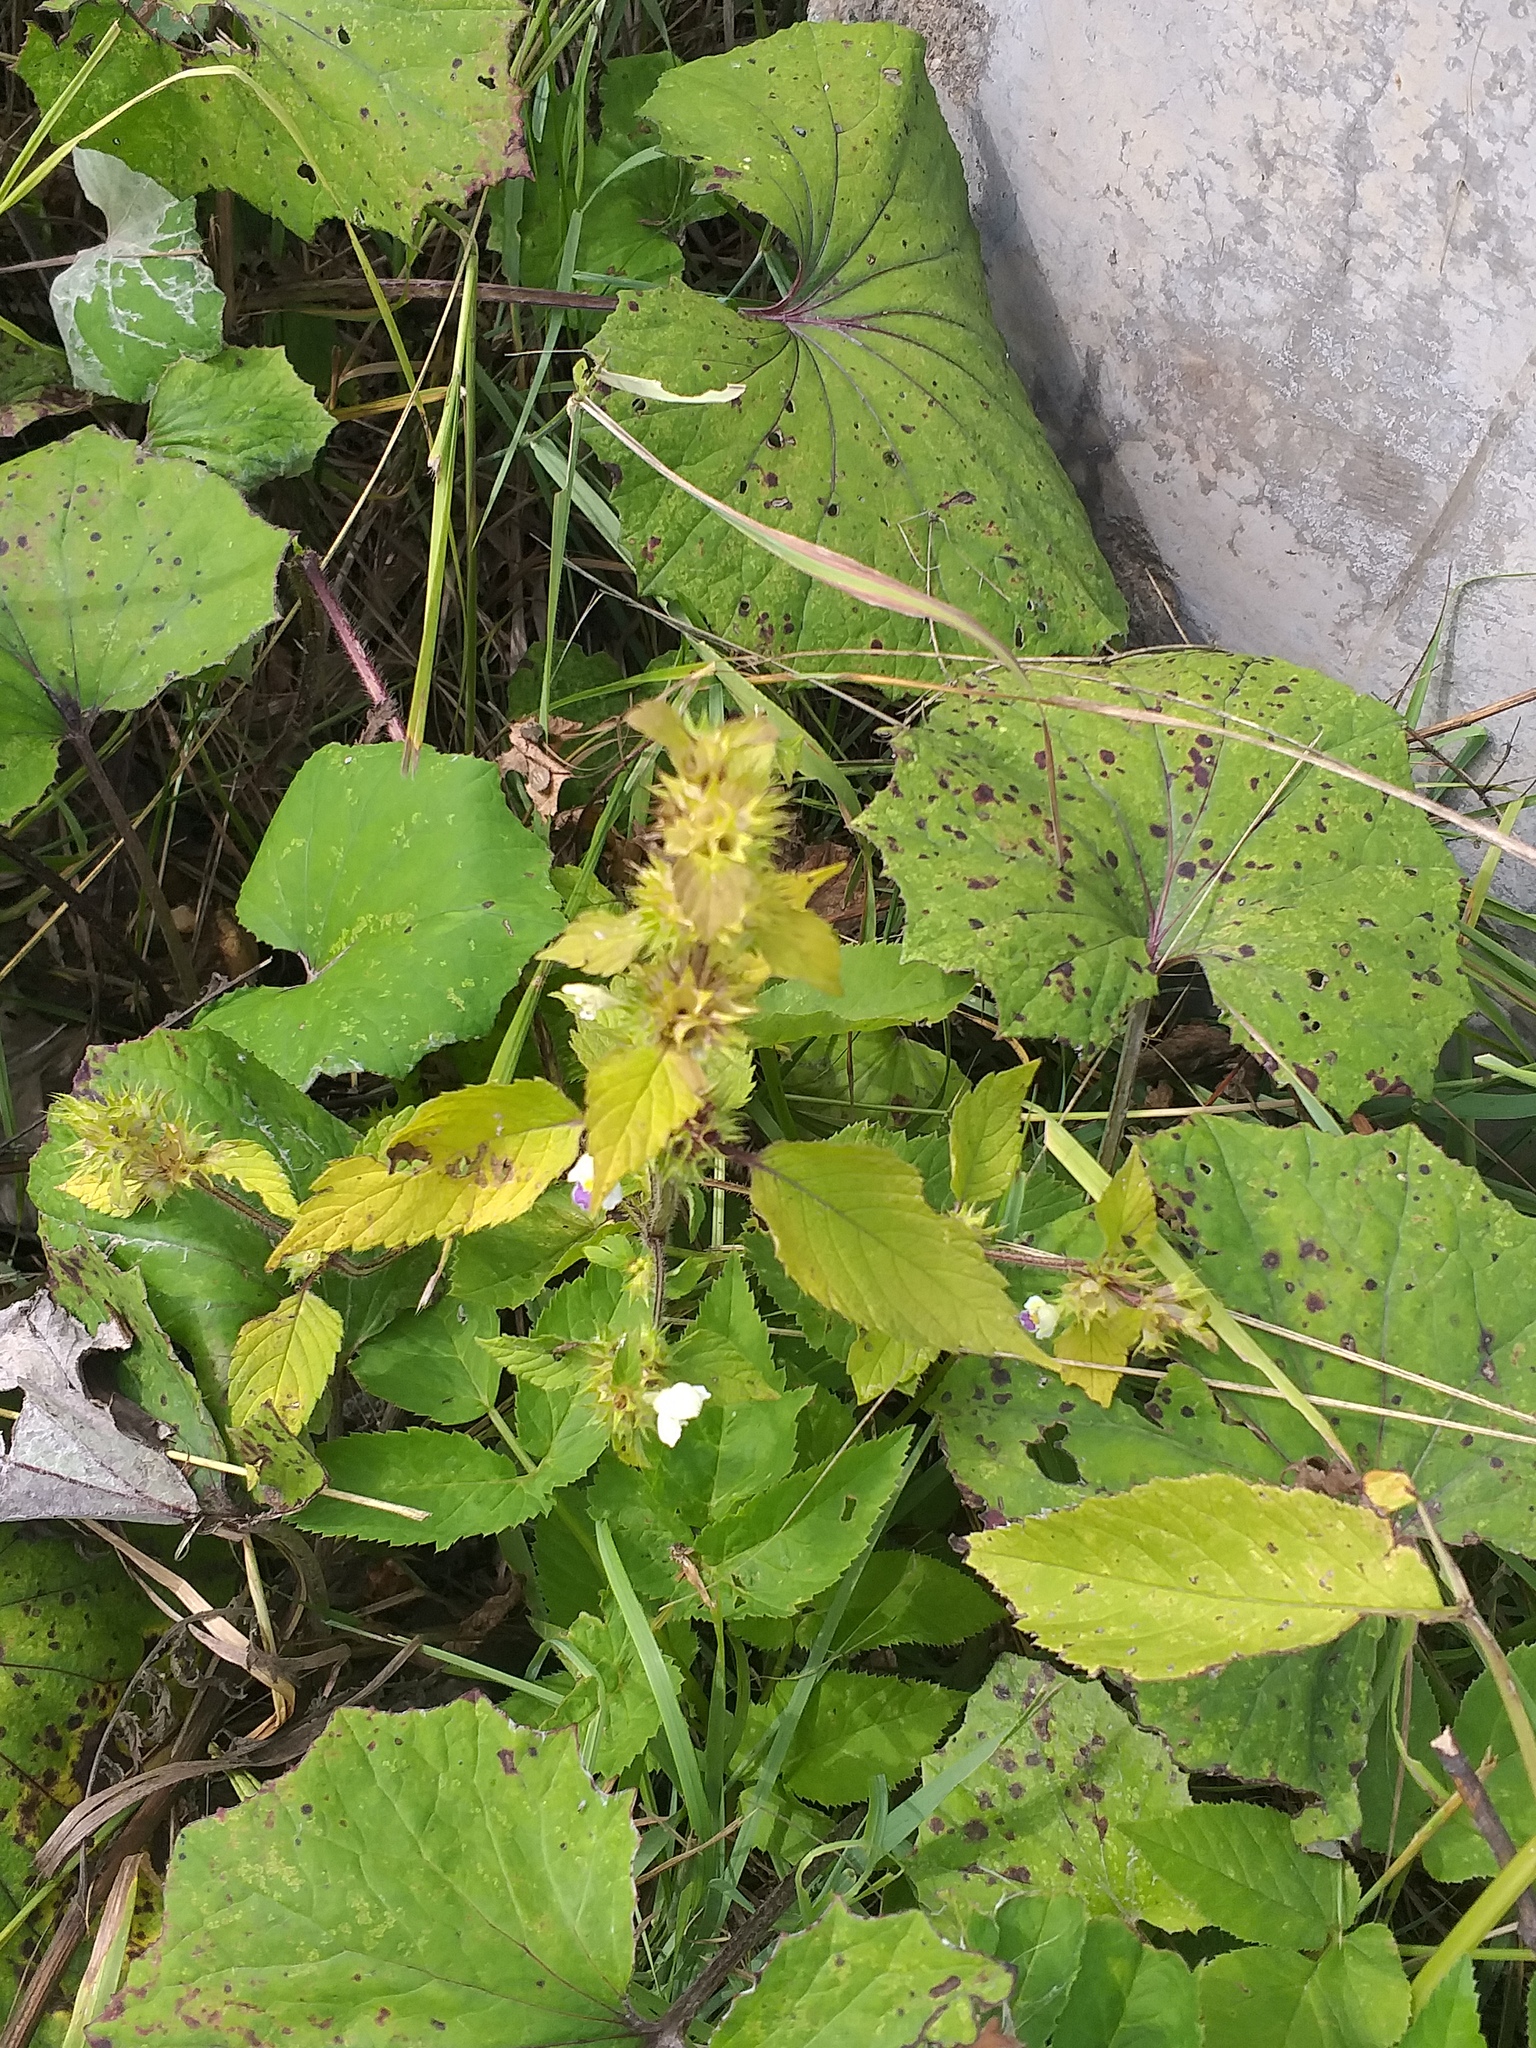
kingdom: Plantae
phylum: Tracheophyta
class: Magnoliopsida
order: Lamiales
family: Lamiaceae
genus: Galeopsis
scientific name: Galeopsis speciosa
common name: Large-flowered hemp-nettle
